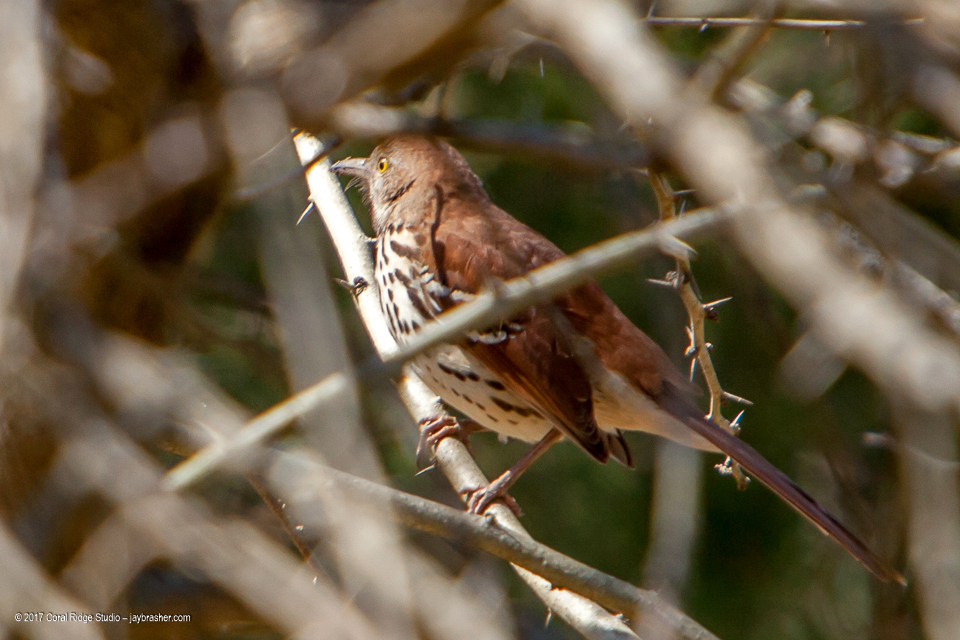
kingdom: Animalia
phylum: Chordata
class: Aves
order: Passeriformes
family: Mimidae
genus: Toxostoma
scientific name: Toxostoma rufum
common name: Brown thrasher
